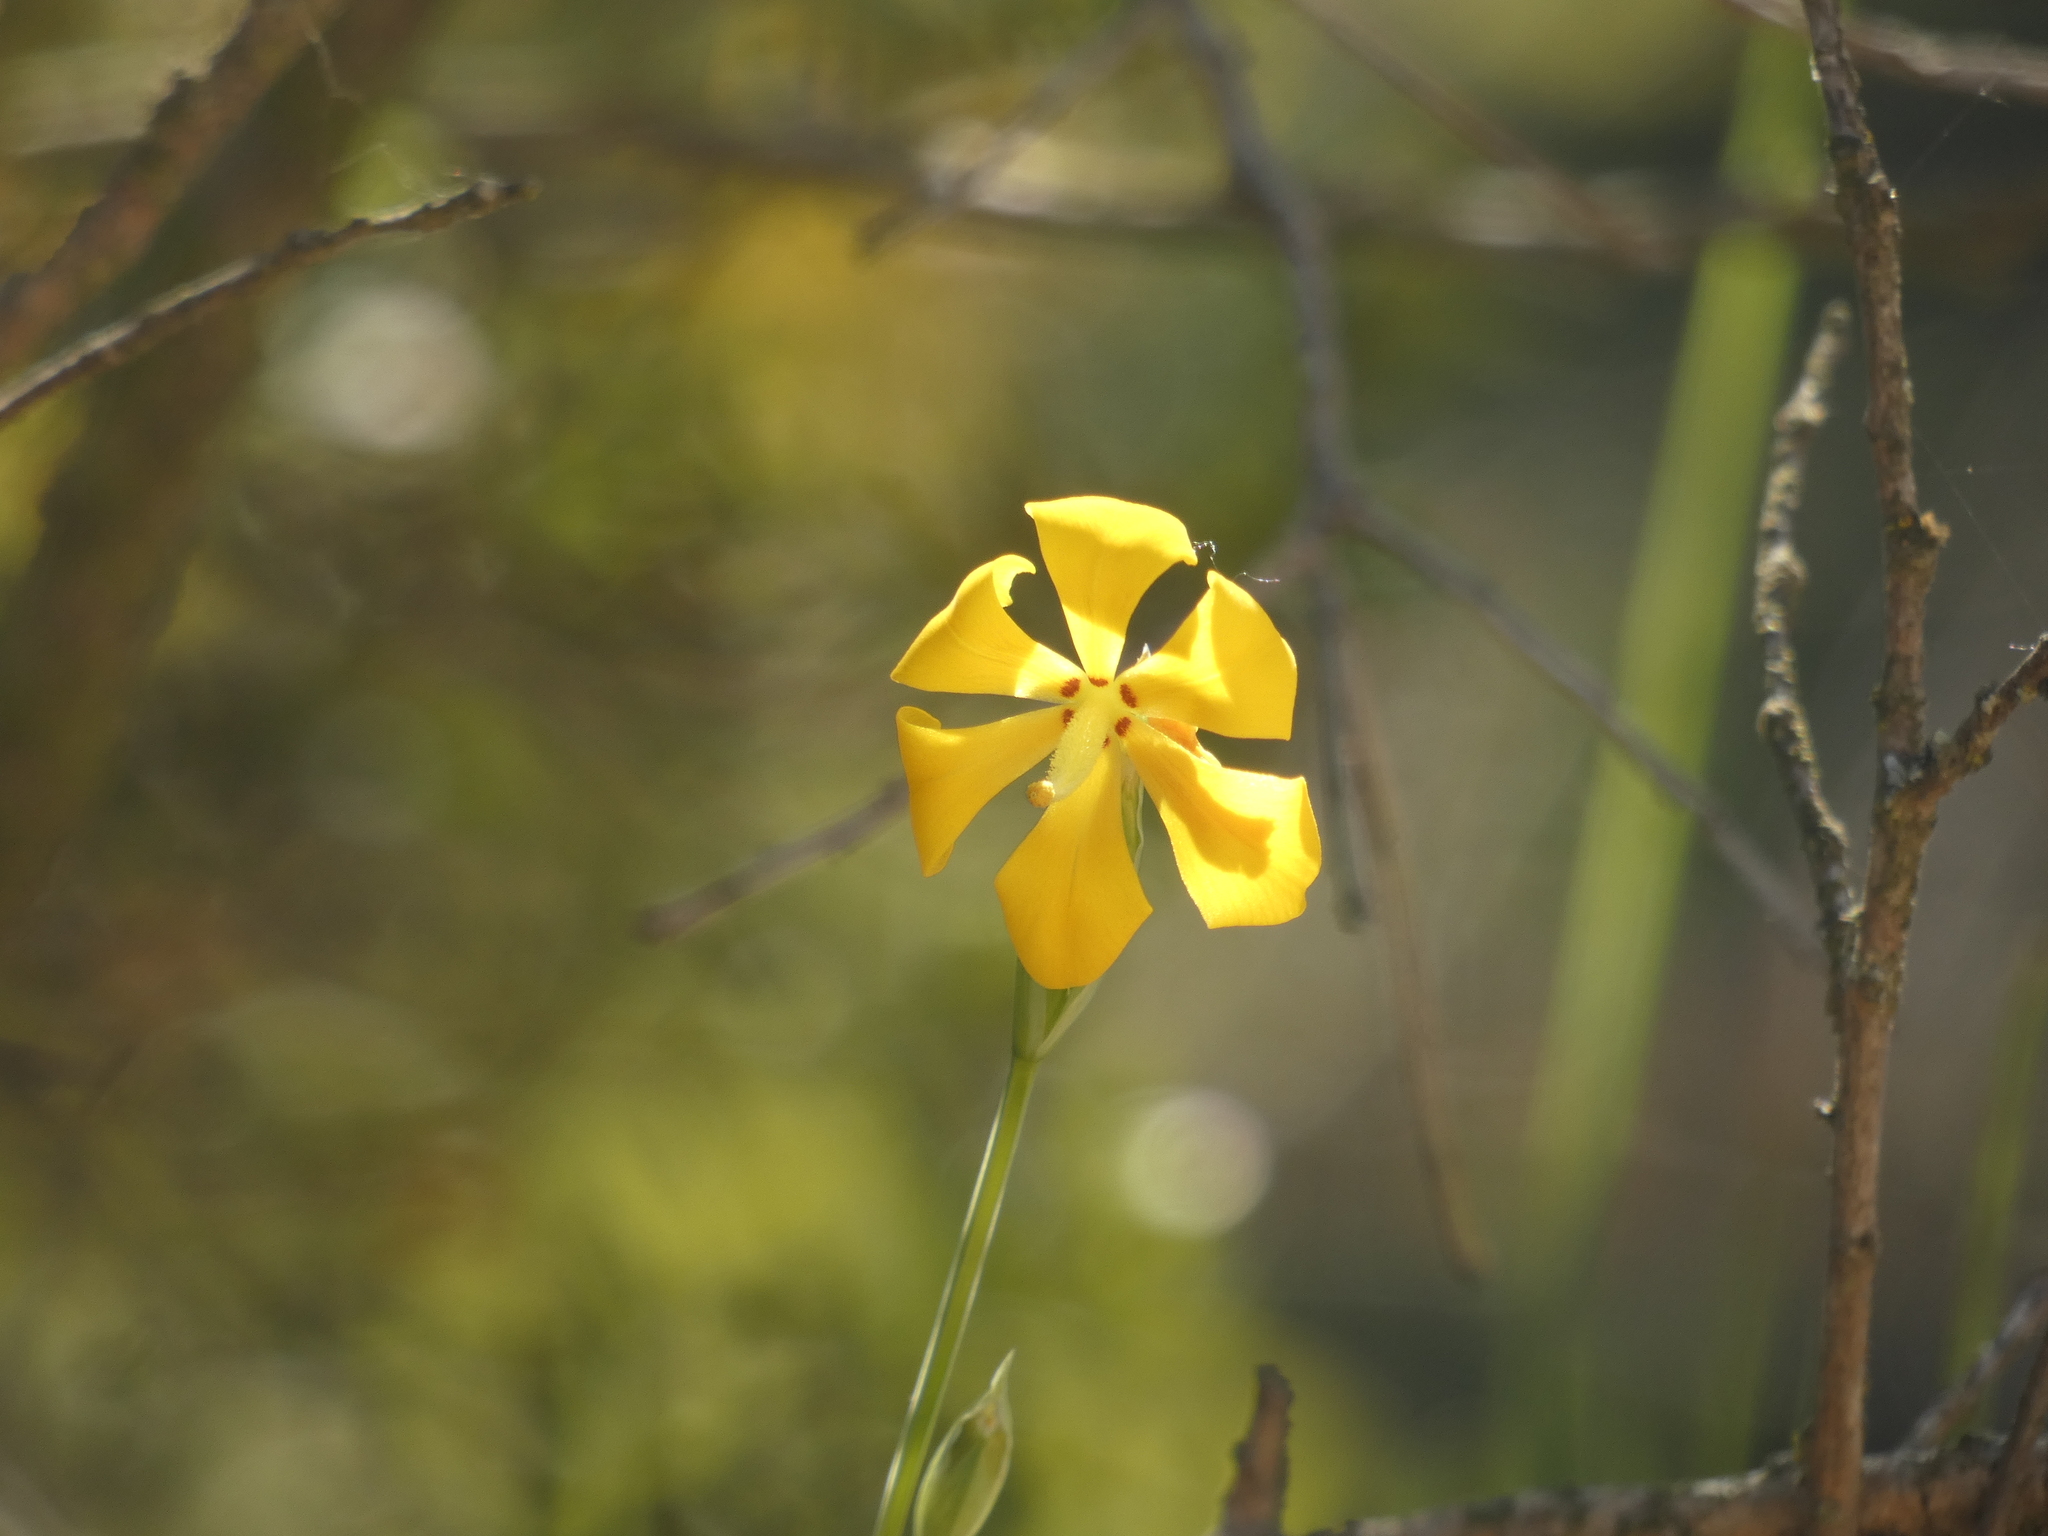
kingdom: Plantae
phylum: Tracheophyta
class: Liliopsida
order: Asparagales
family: Iridaceae
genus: Solenomelus
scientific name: Solenomelus pedunculatus
